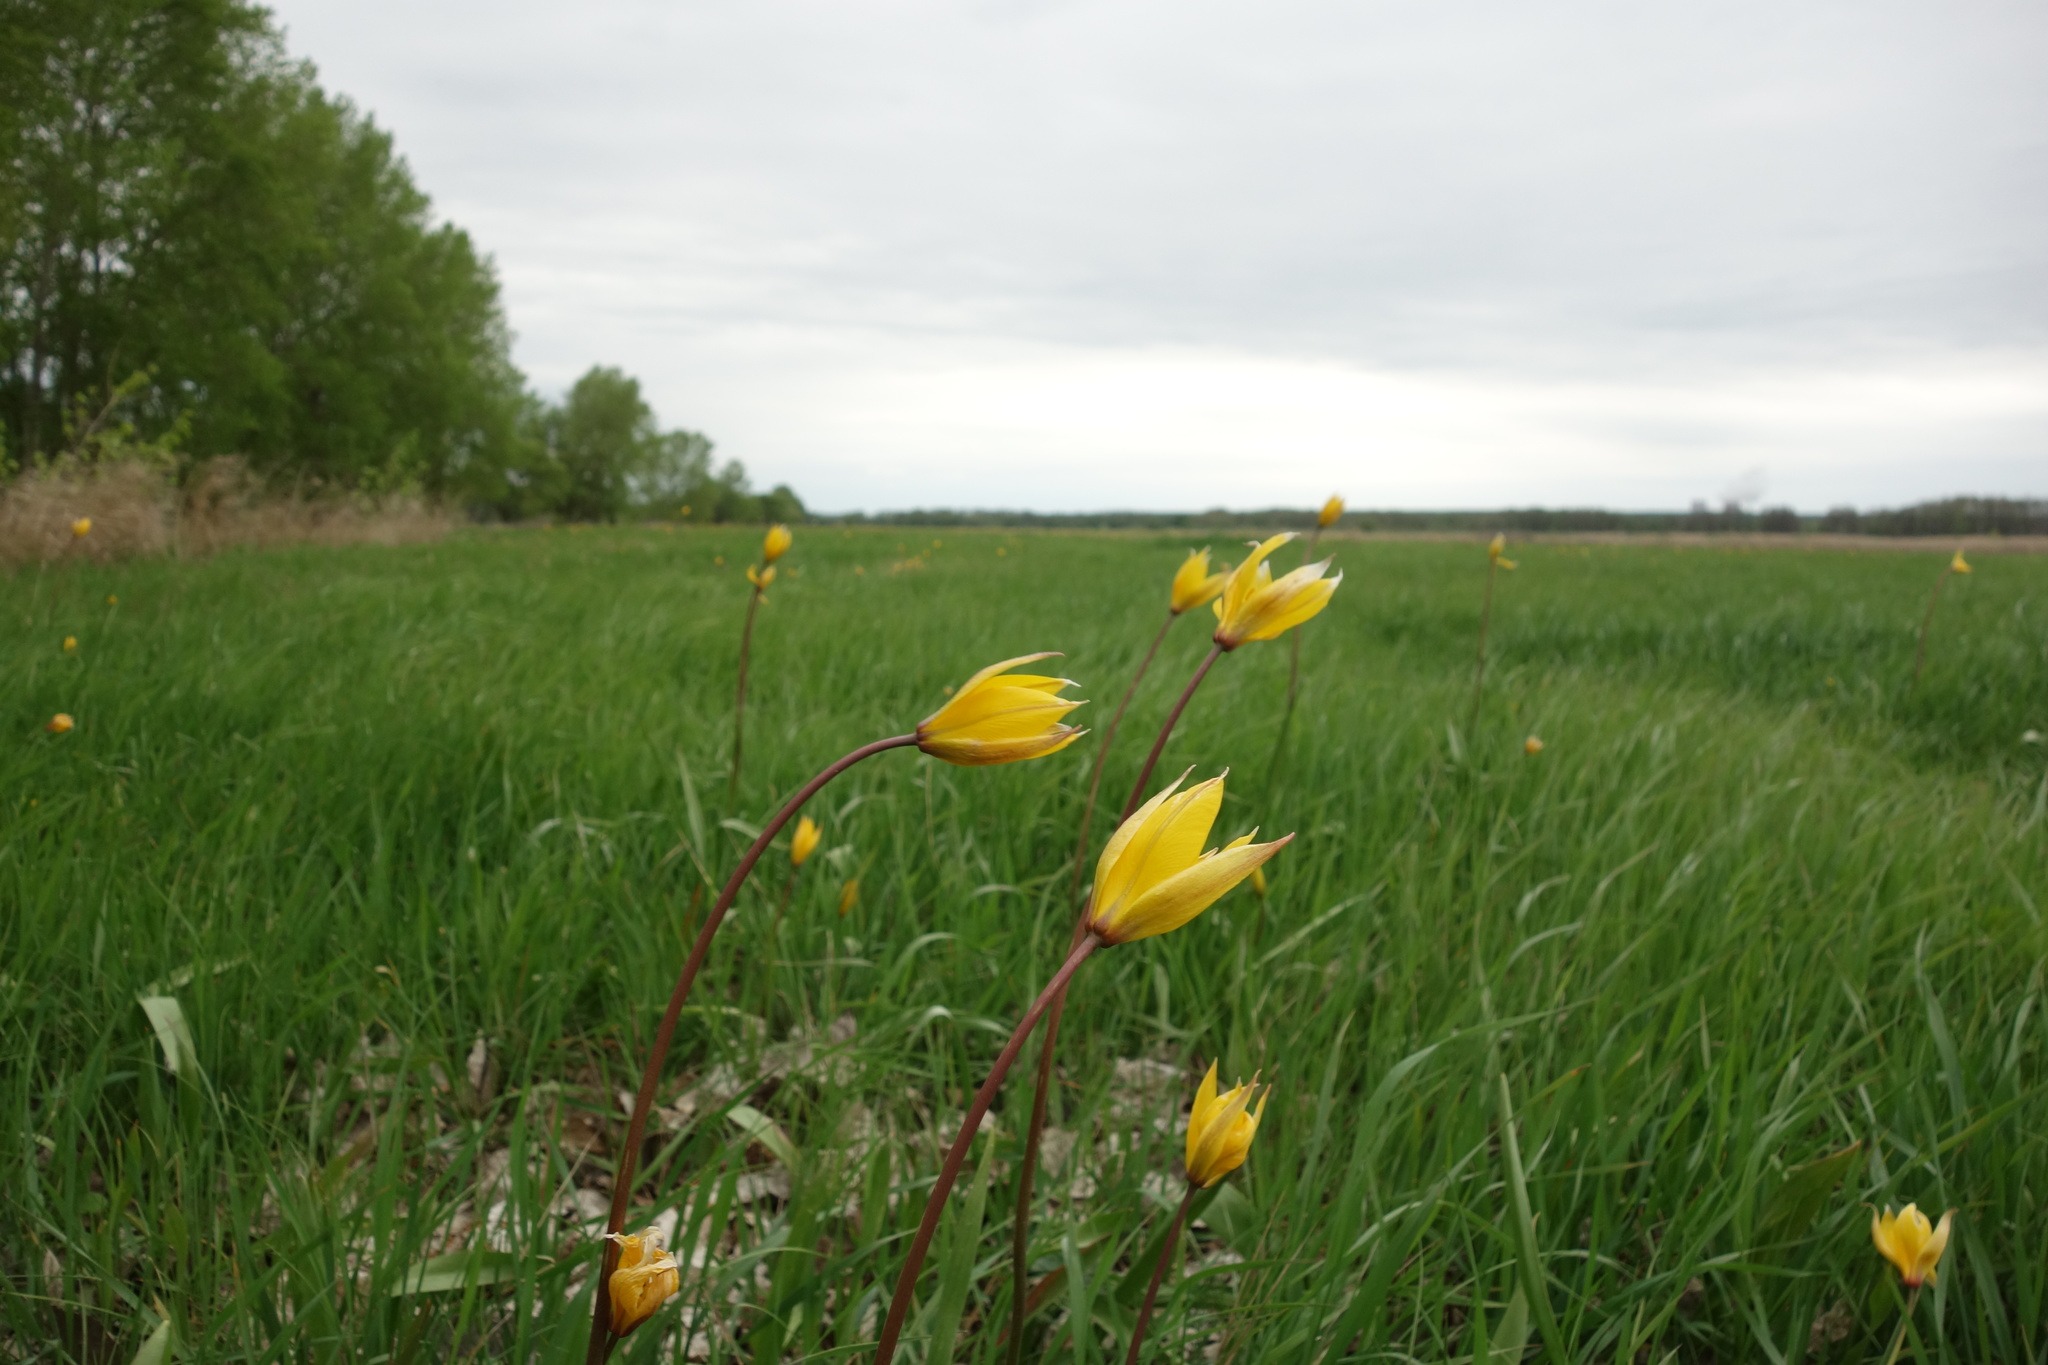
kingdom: Plantae
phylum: Tracheophyta
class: Liliopsida
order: Liliales
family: Liliaceae
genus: Tulipa
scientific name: Tulipa sylvestris
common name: Wild tulip
